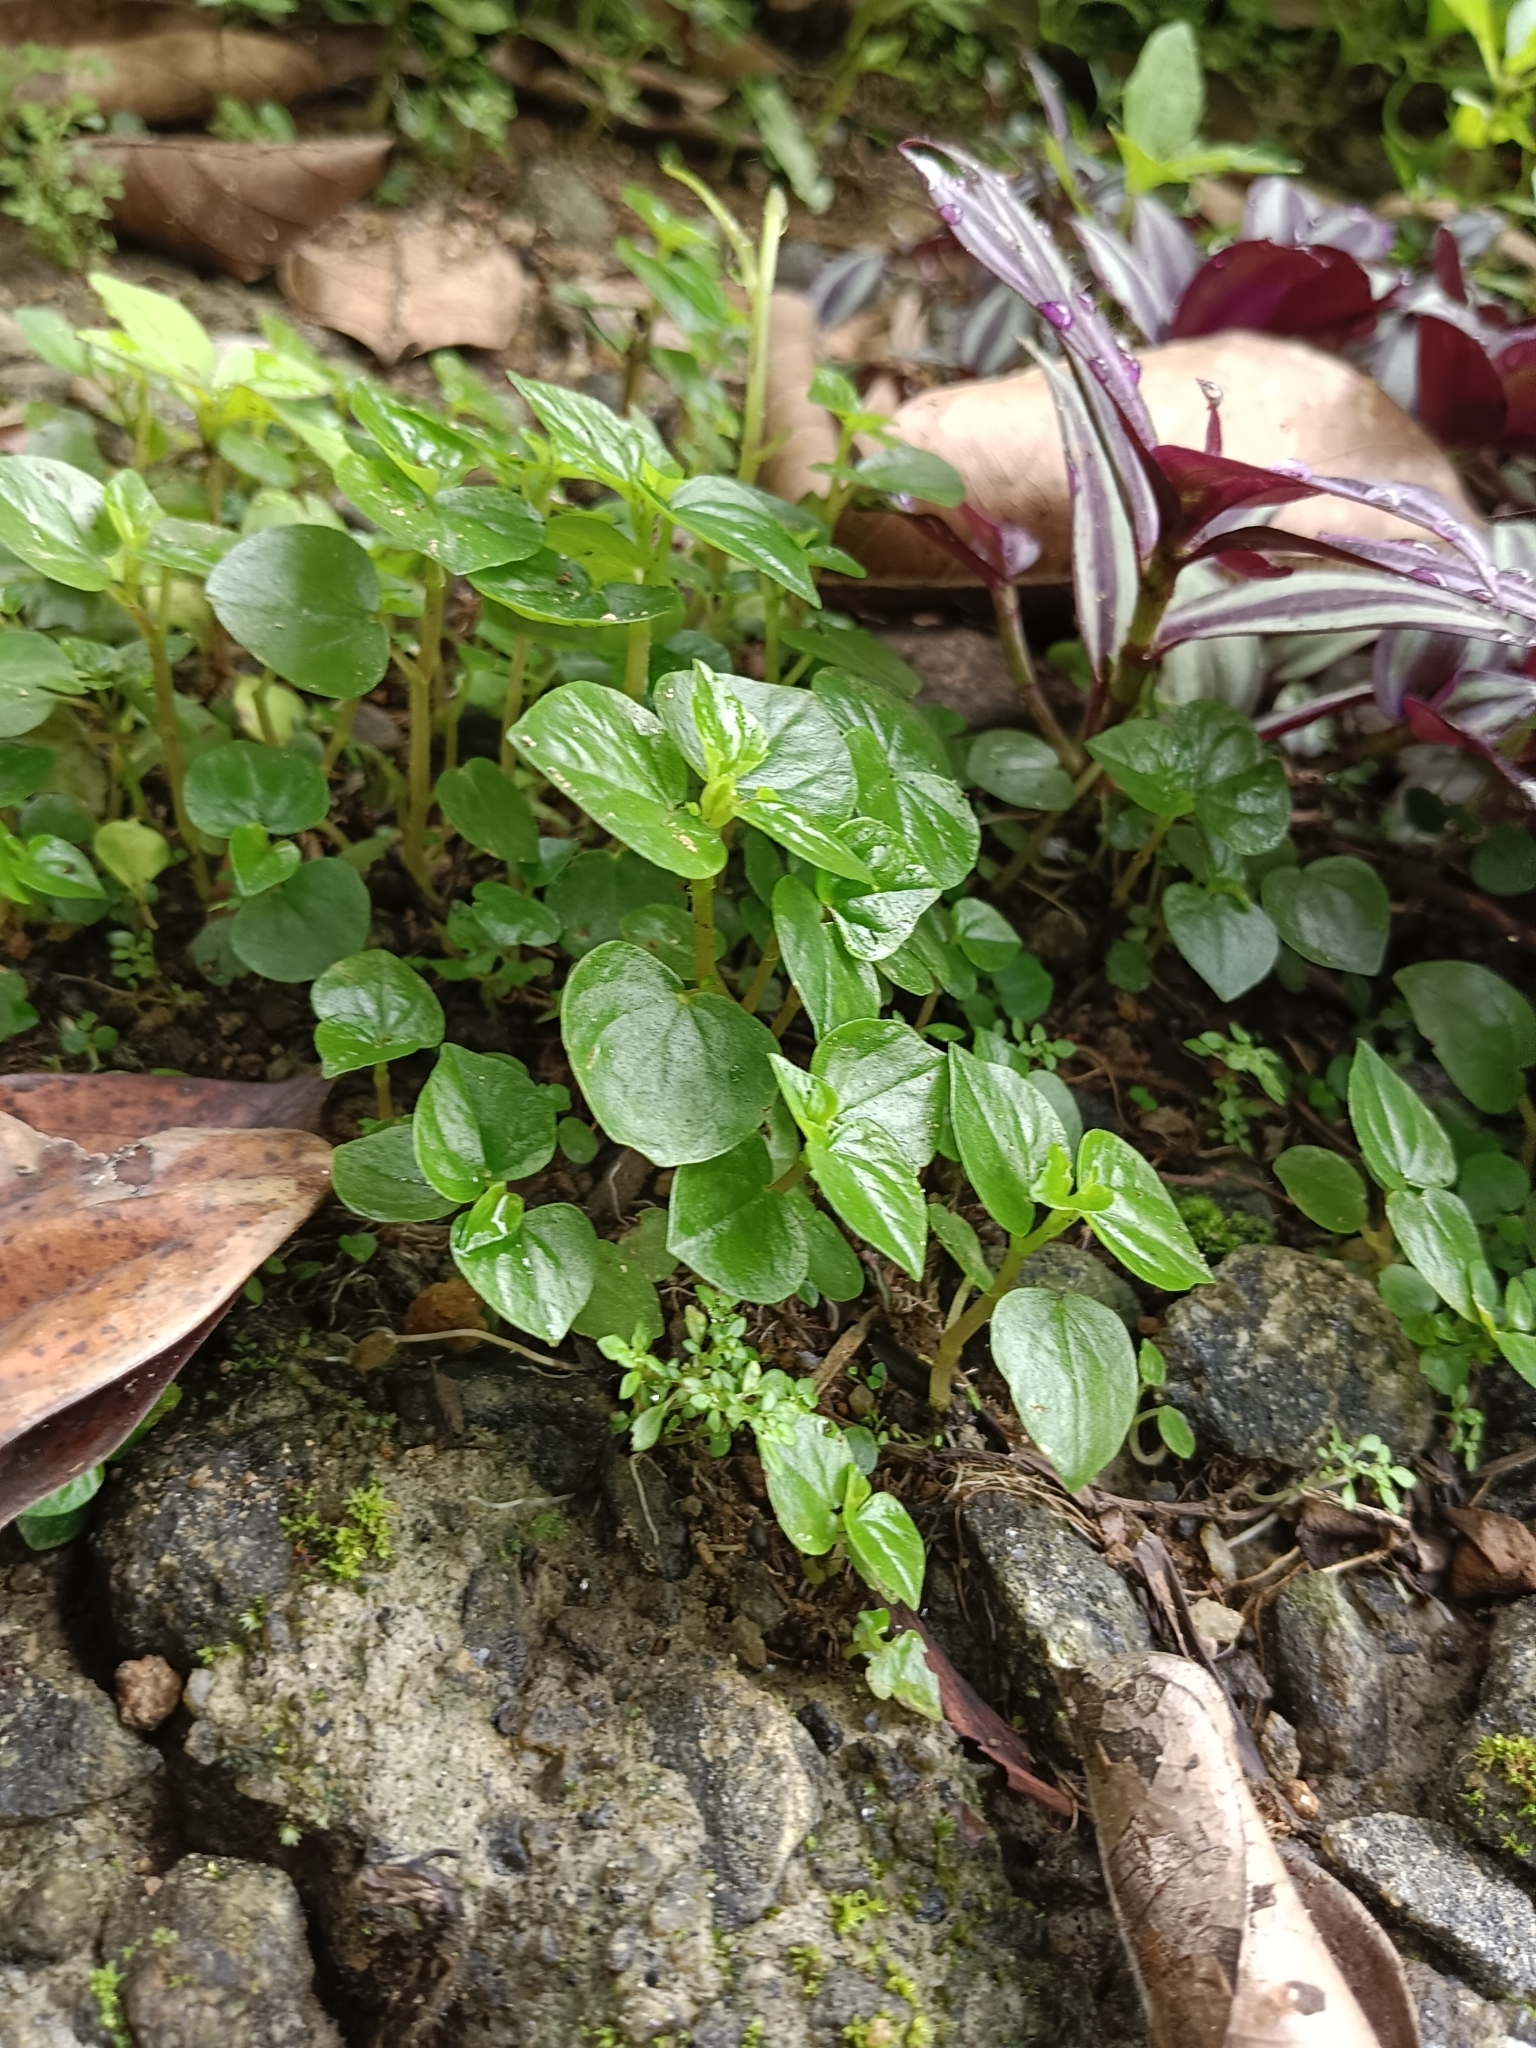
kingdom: Plantae
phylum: Tracheophyta
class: Magnoliopsida
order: Piperales
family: Piperaceae
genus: Peperomia
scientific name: Peperomia pellucida
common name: Man to man
